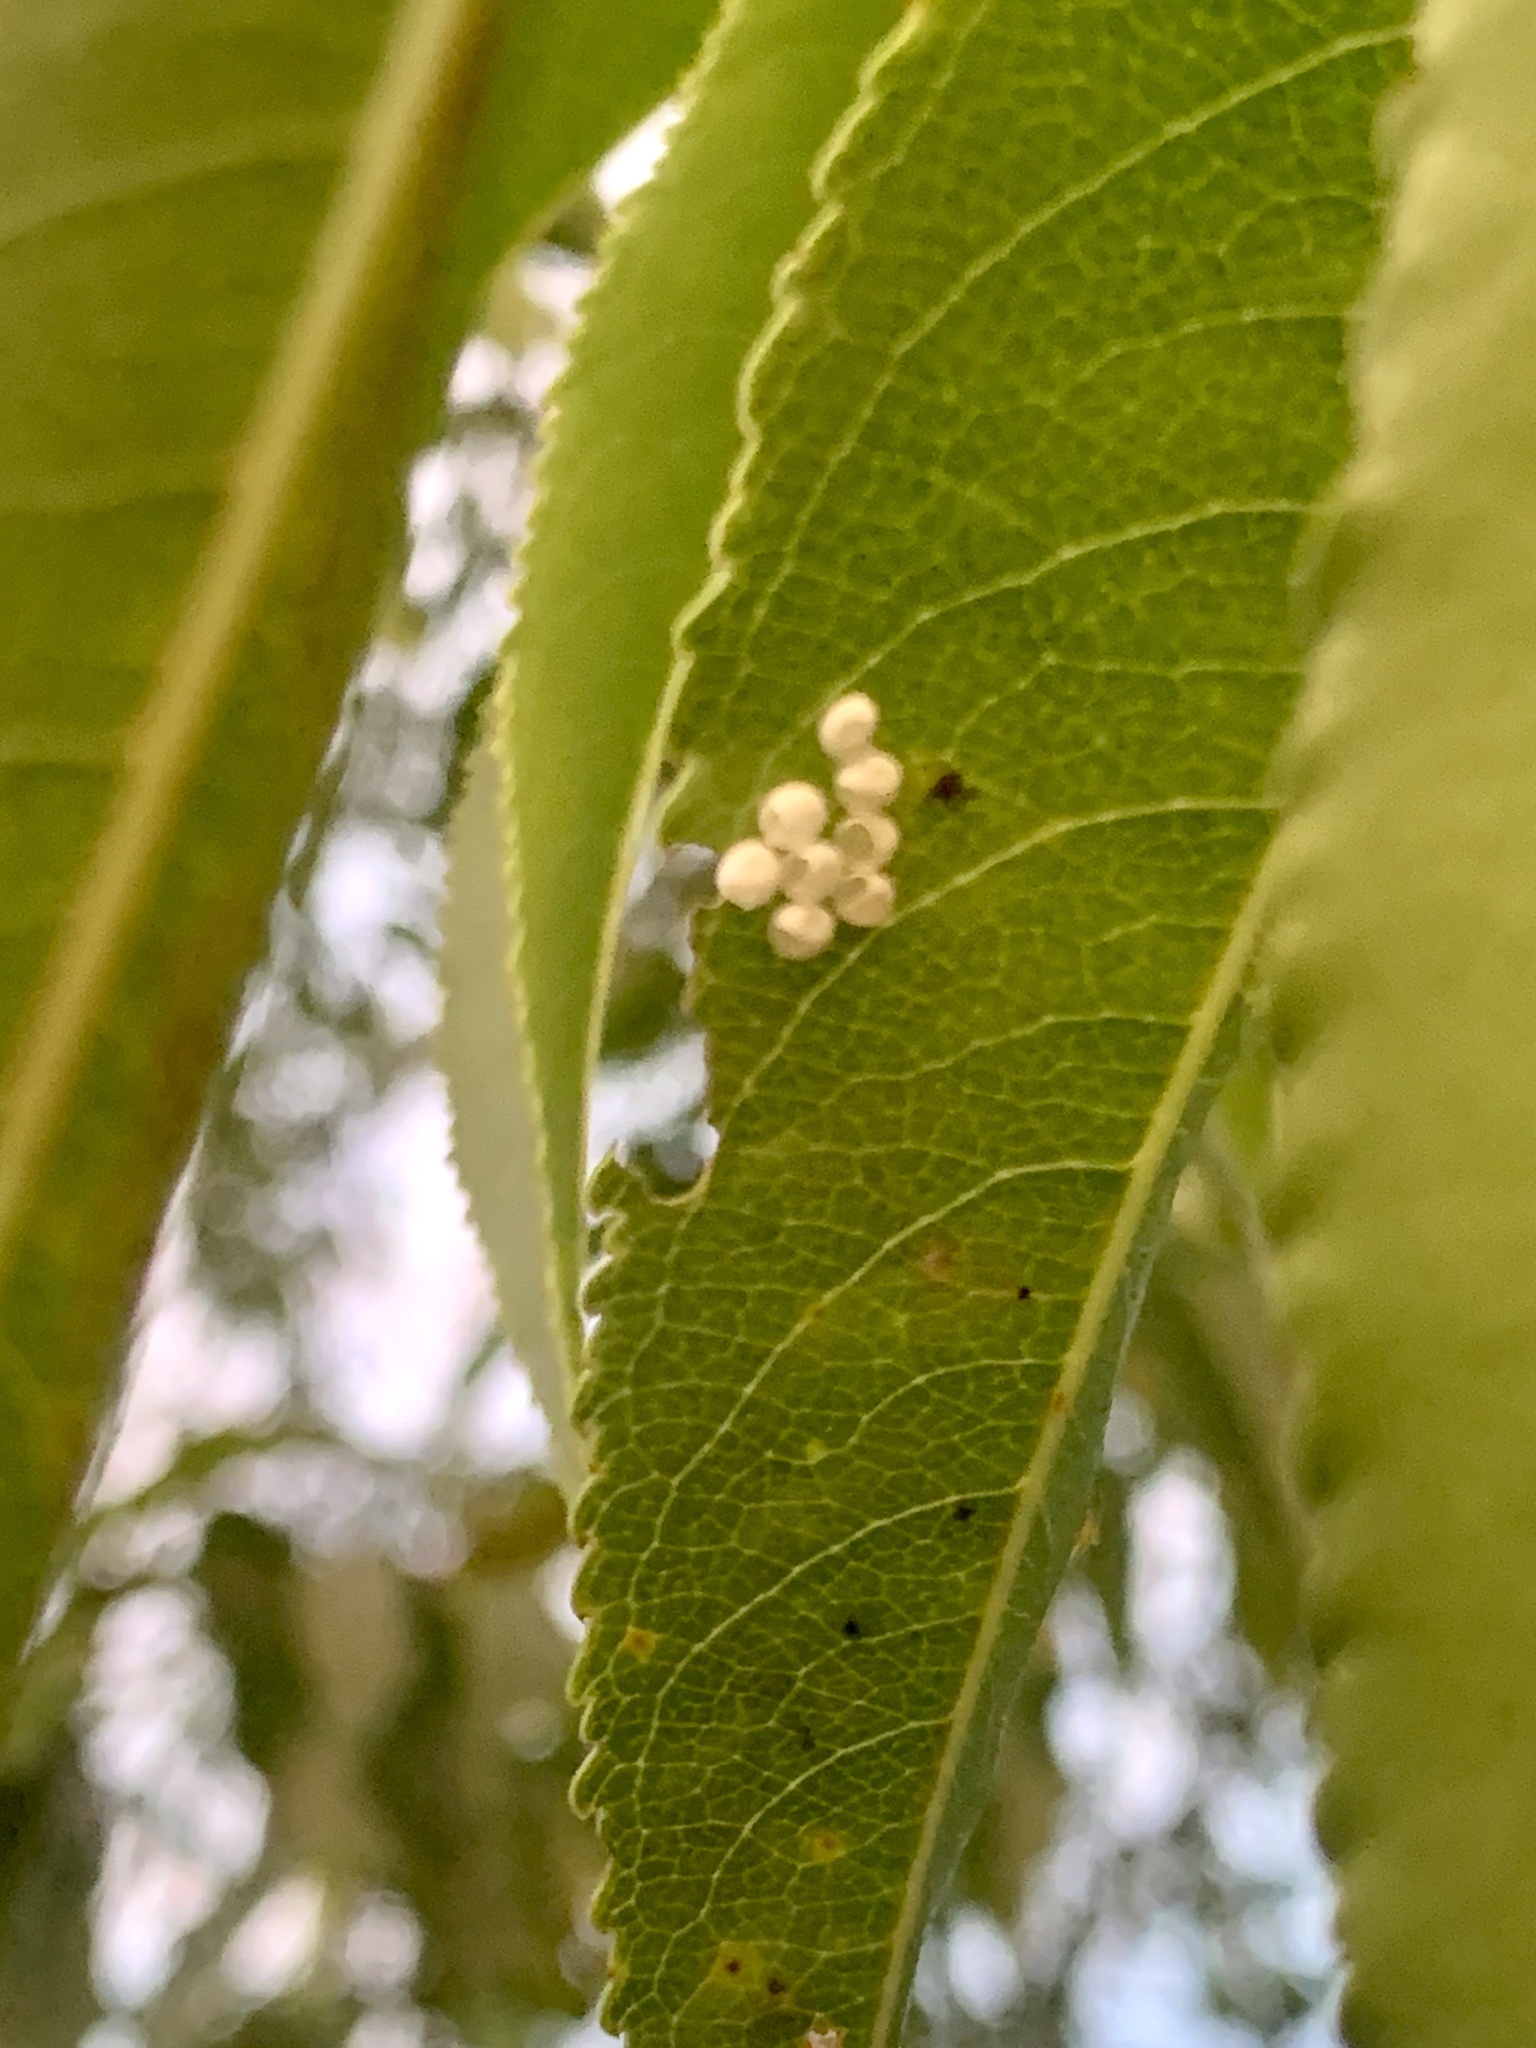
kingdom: Animalia
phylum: Arthropoda
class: Insecta
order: Lepidoptera
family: Saturniidae
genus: Callosamia
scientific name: Callosamia promethea
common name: Promethea silkmoth
